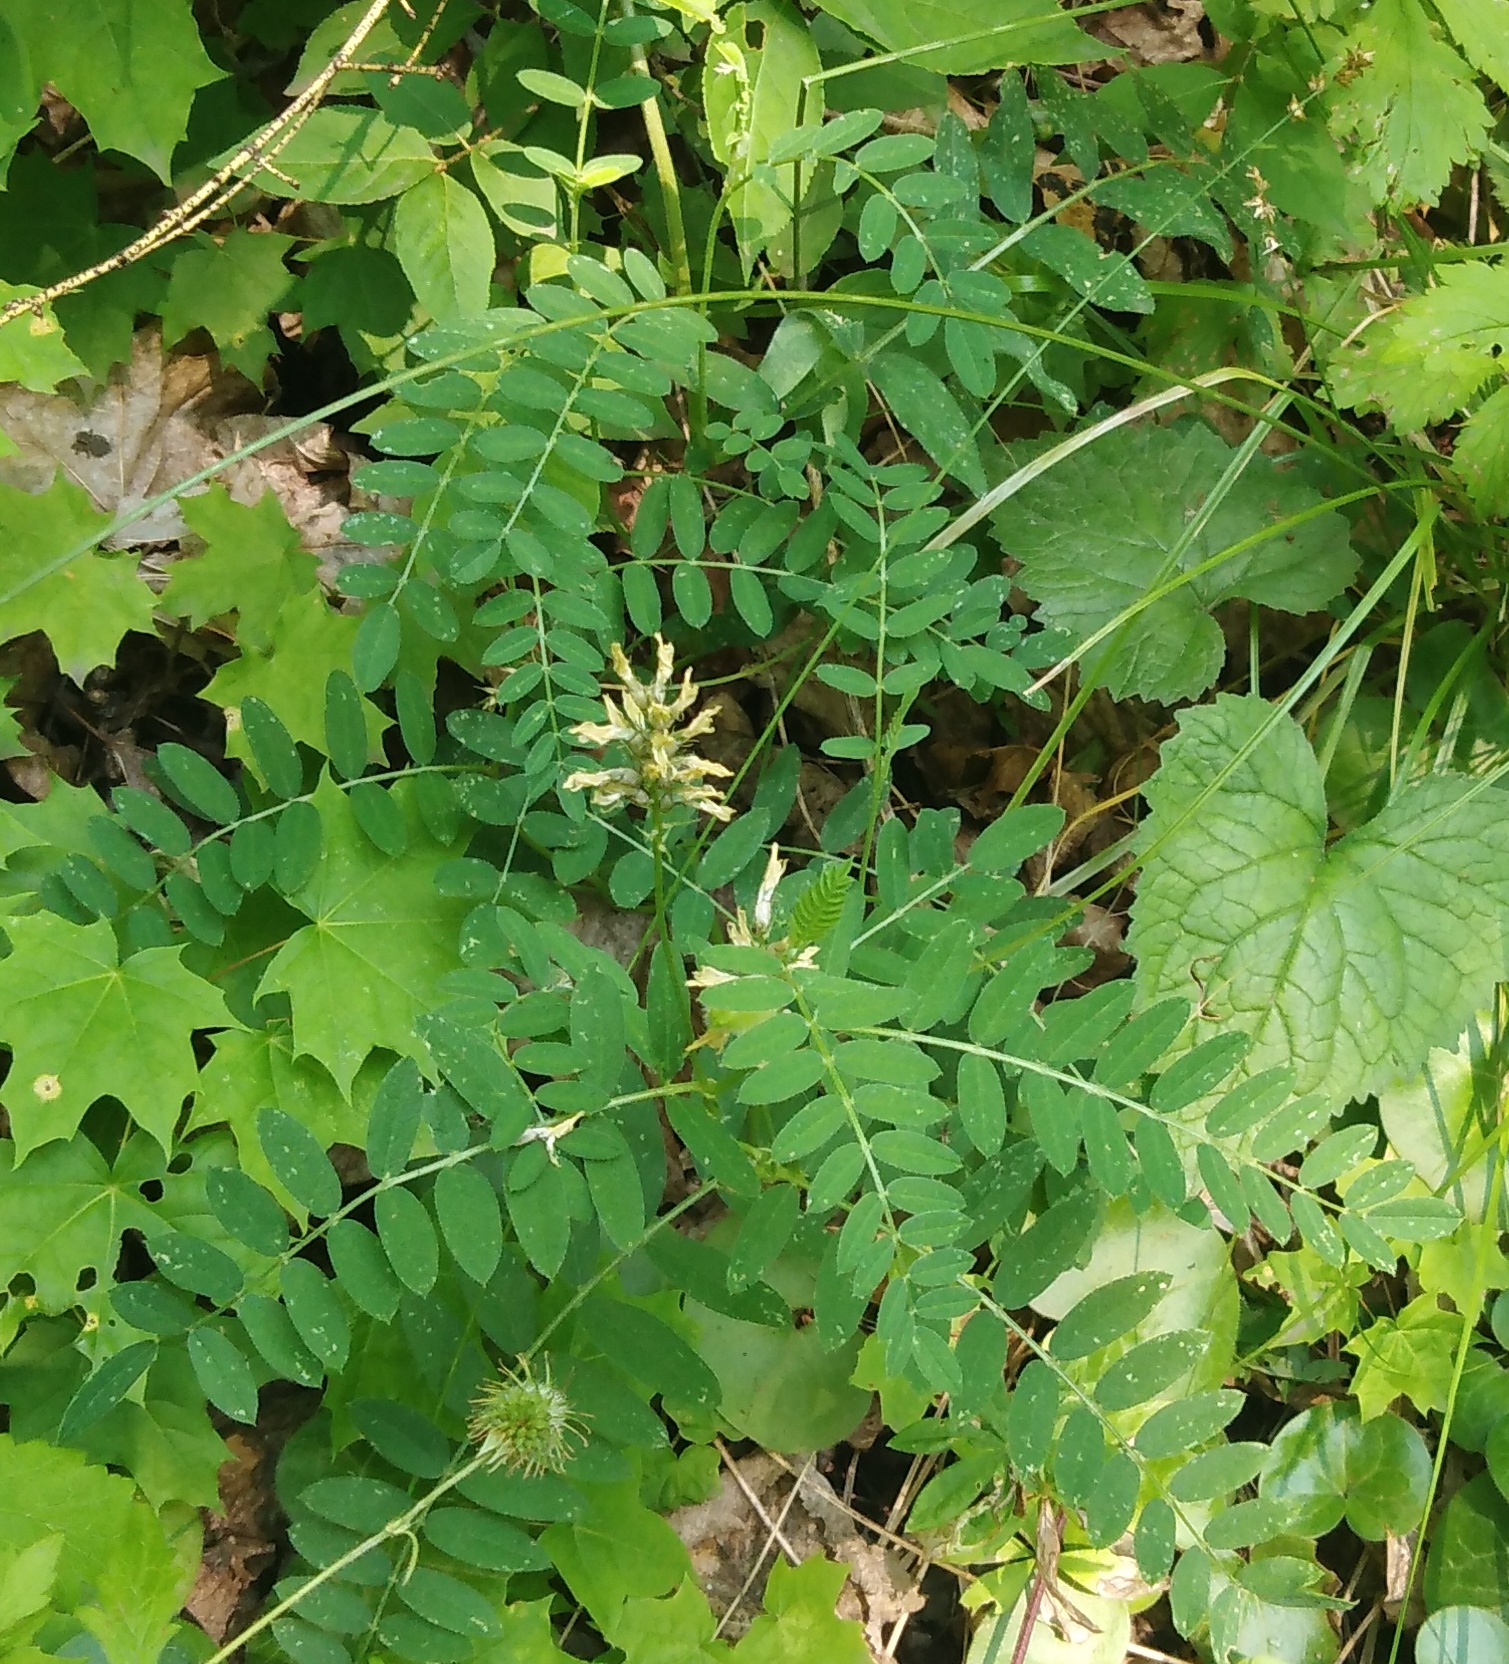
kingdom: Plantae
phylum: Tracheophyta
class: Magnoliopsida
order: Fabales
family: Fabaceae
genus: Astragalus
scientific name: Astragalus cicer
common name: Chick-pea milk-vetch
